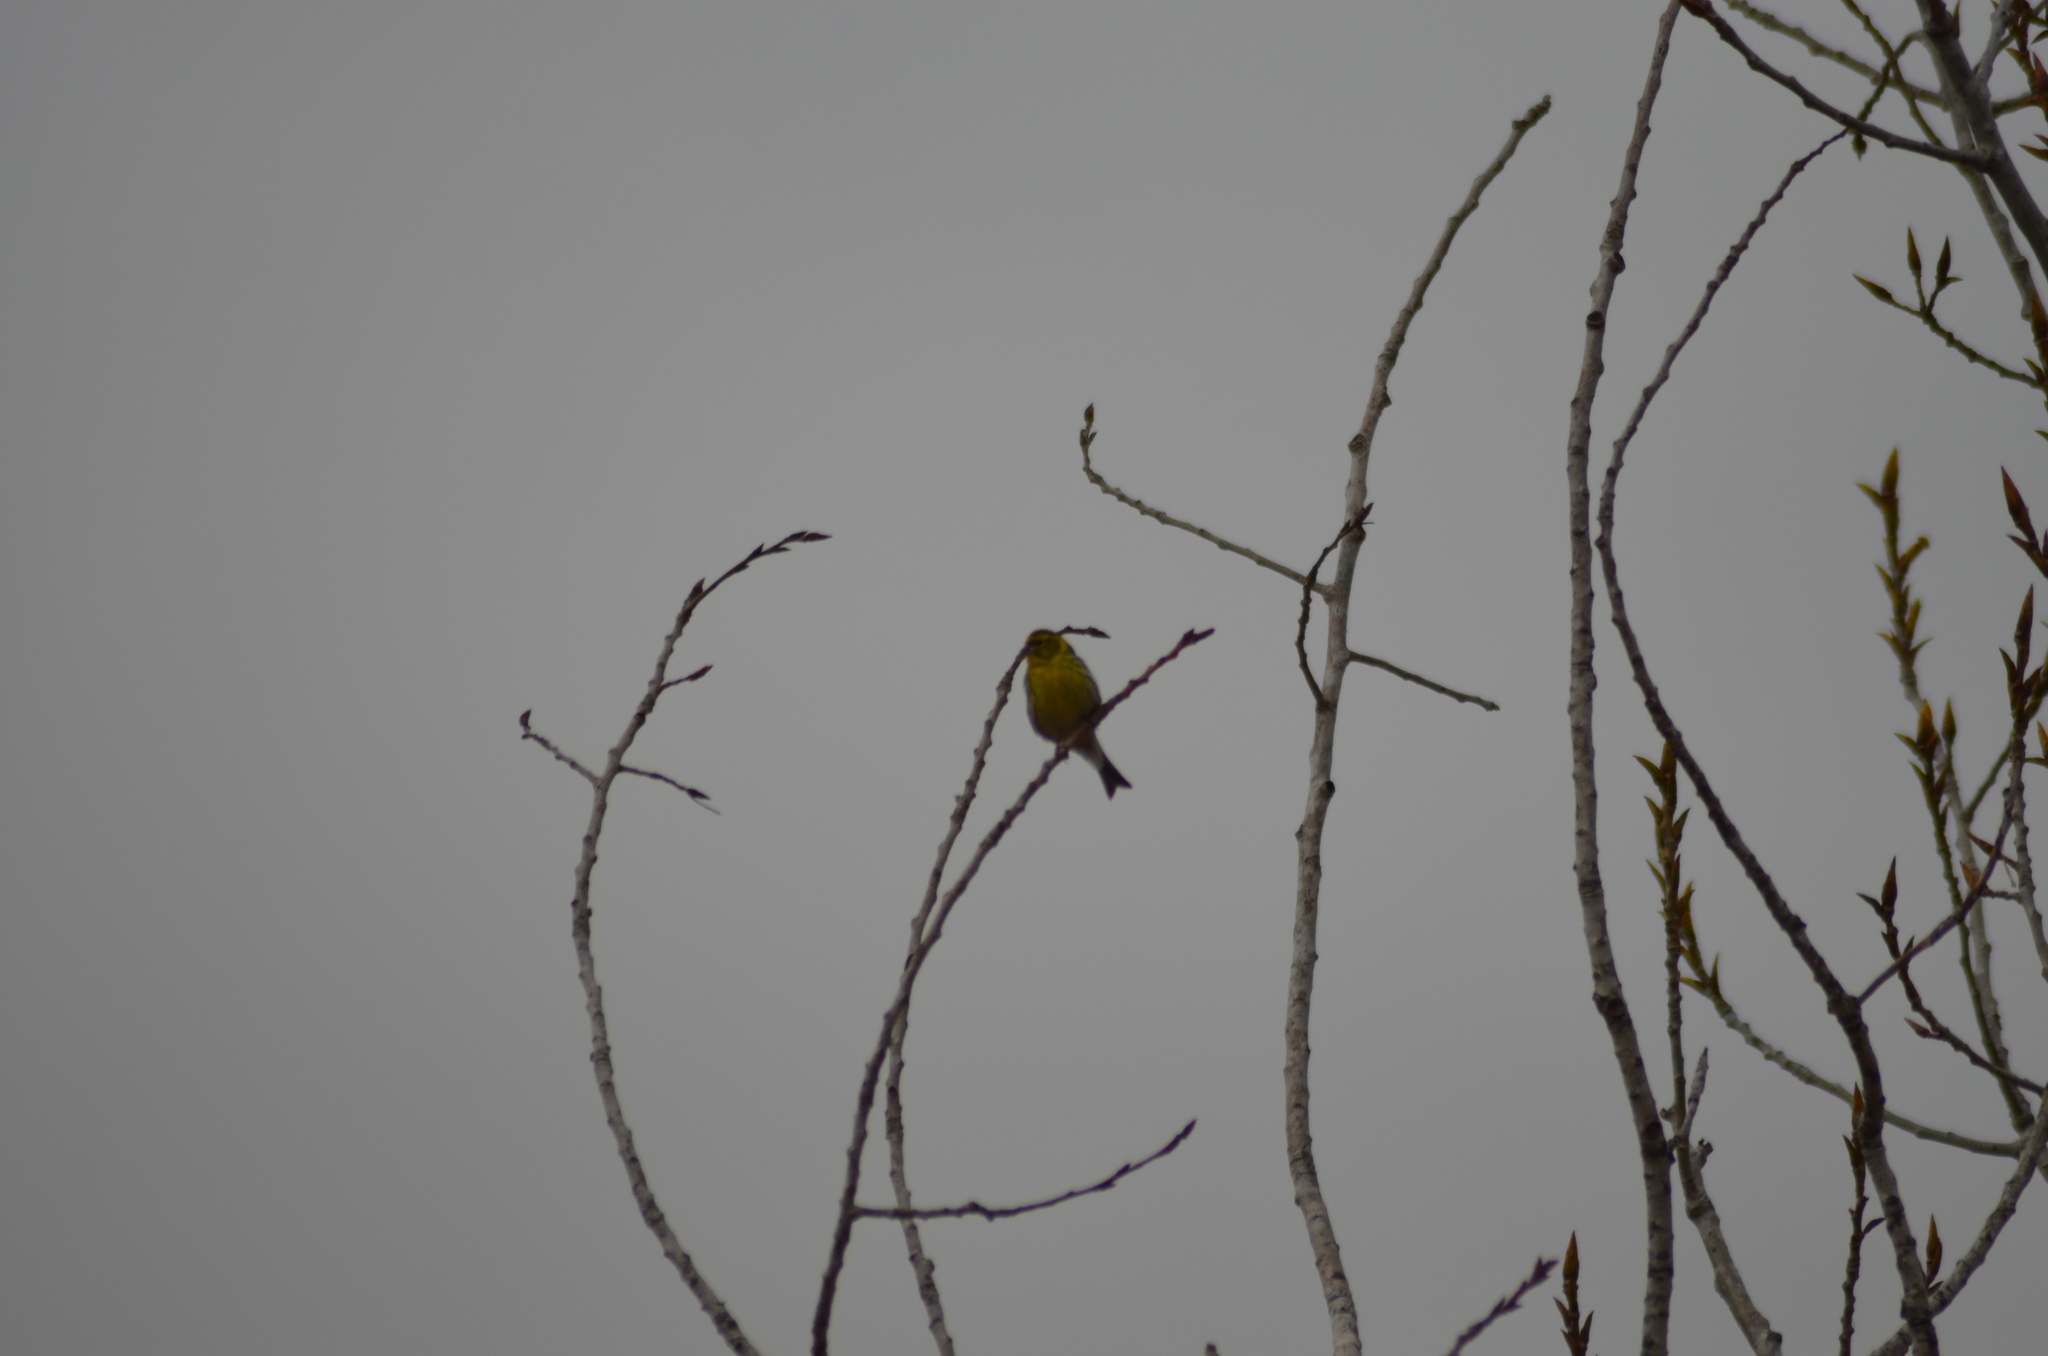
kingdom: Animalia
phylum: Chordata
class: Aves
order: Passeriformes
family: Fringillidae
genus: Serinus
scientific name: Serinus serinus
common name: European serin
